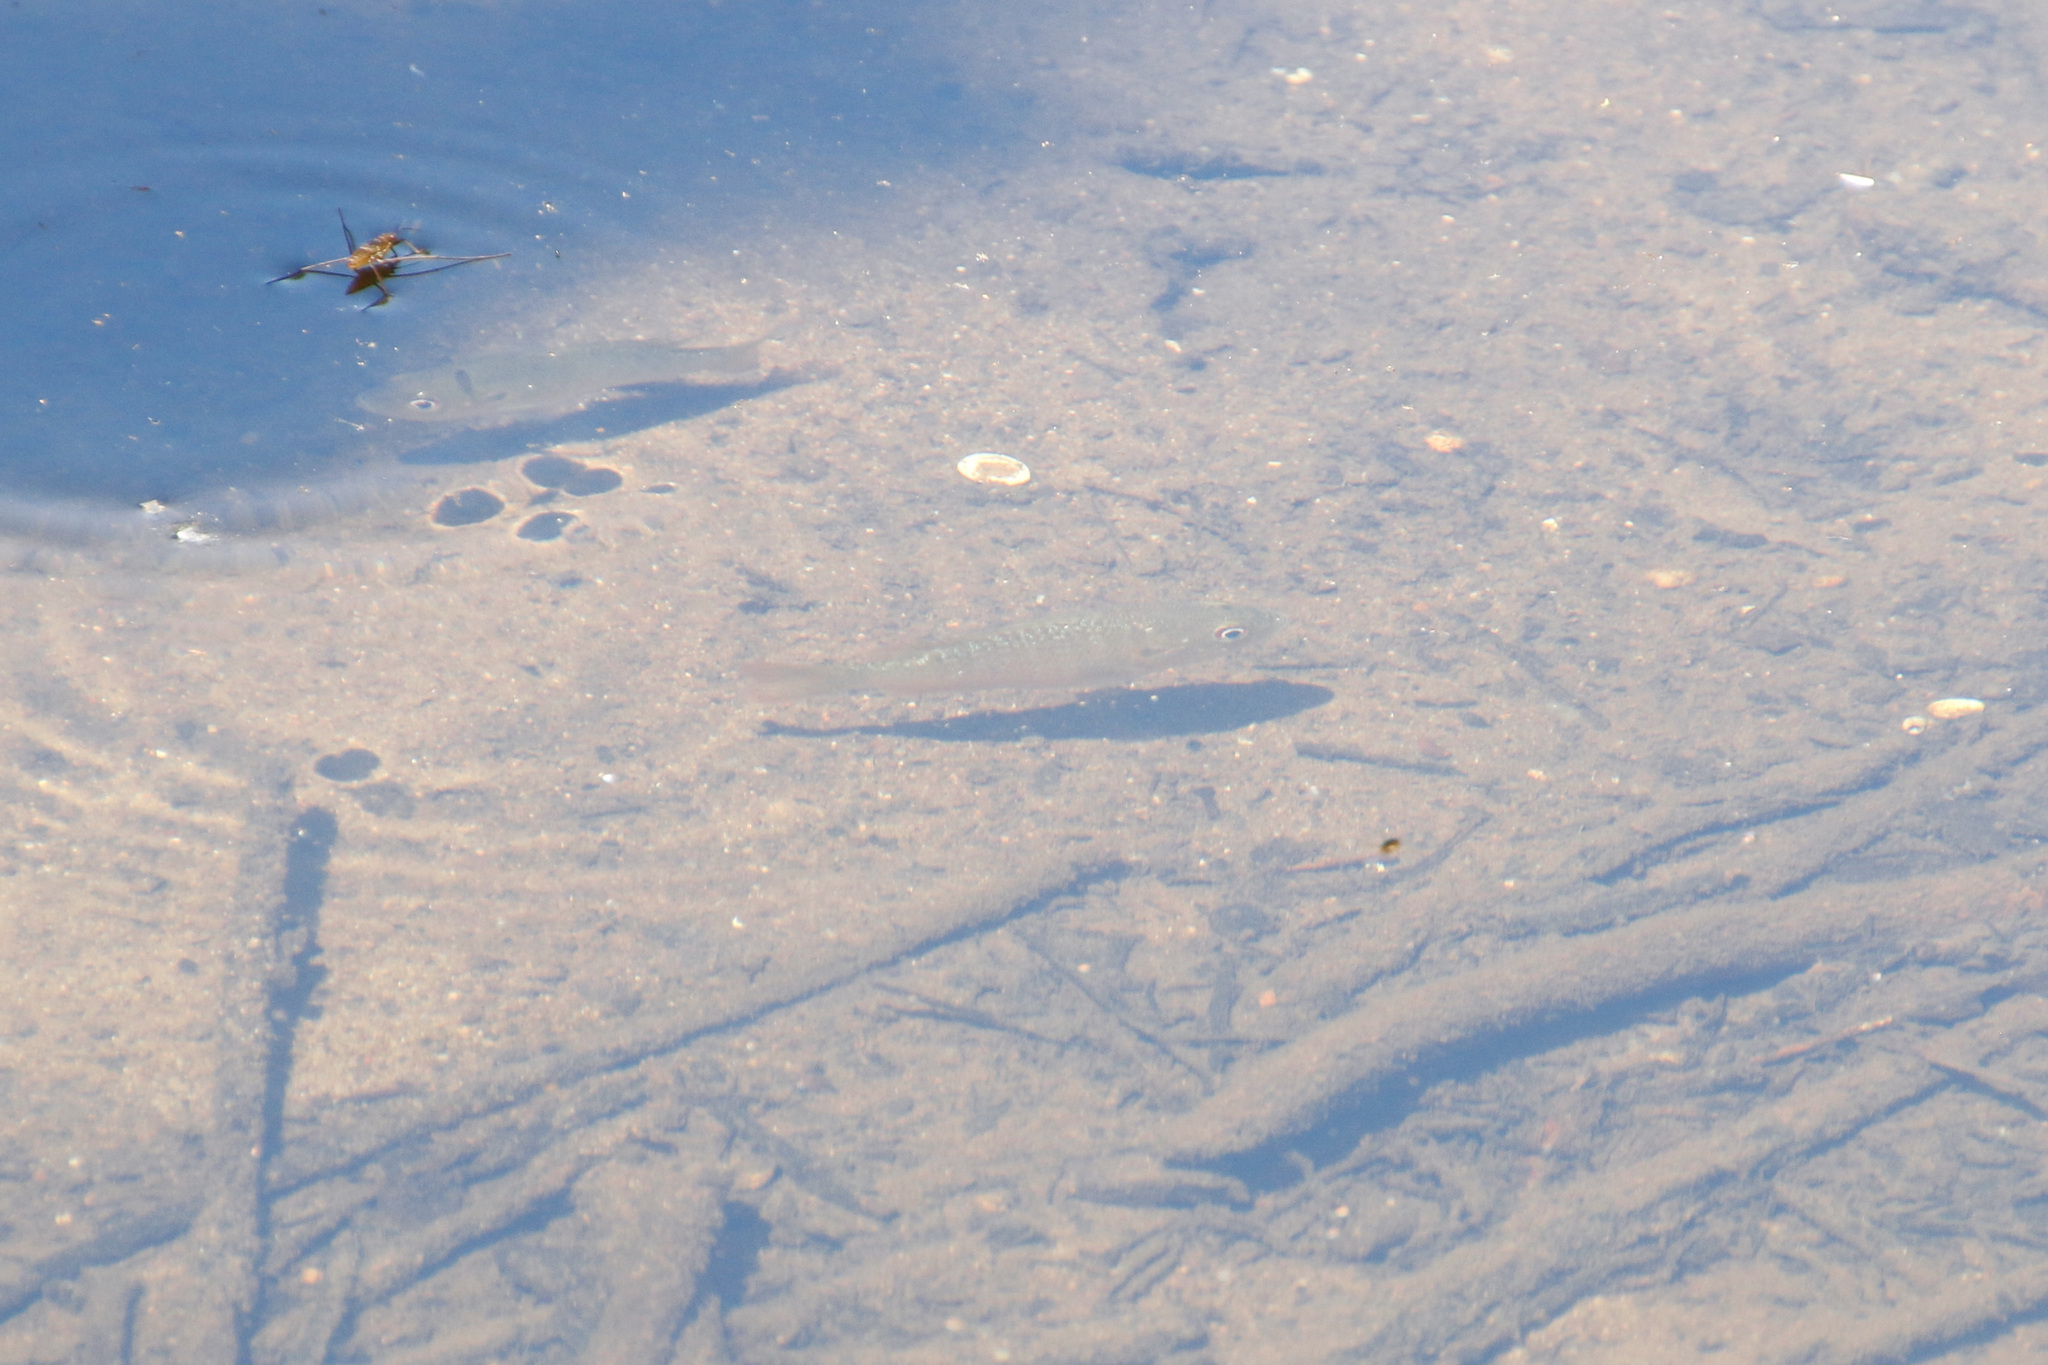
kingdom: Animalia
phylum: Chordata
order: Perciformes
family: Centrarchidae
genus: Lepomis
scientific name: Lepomis
